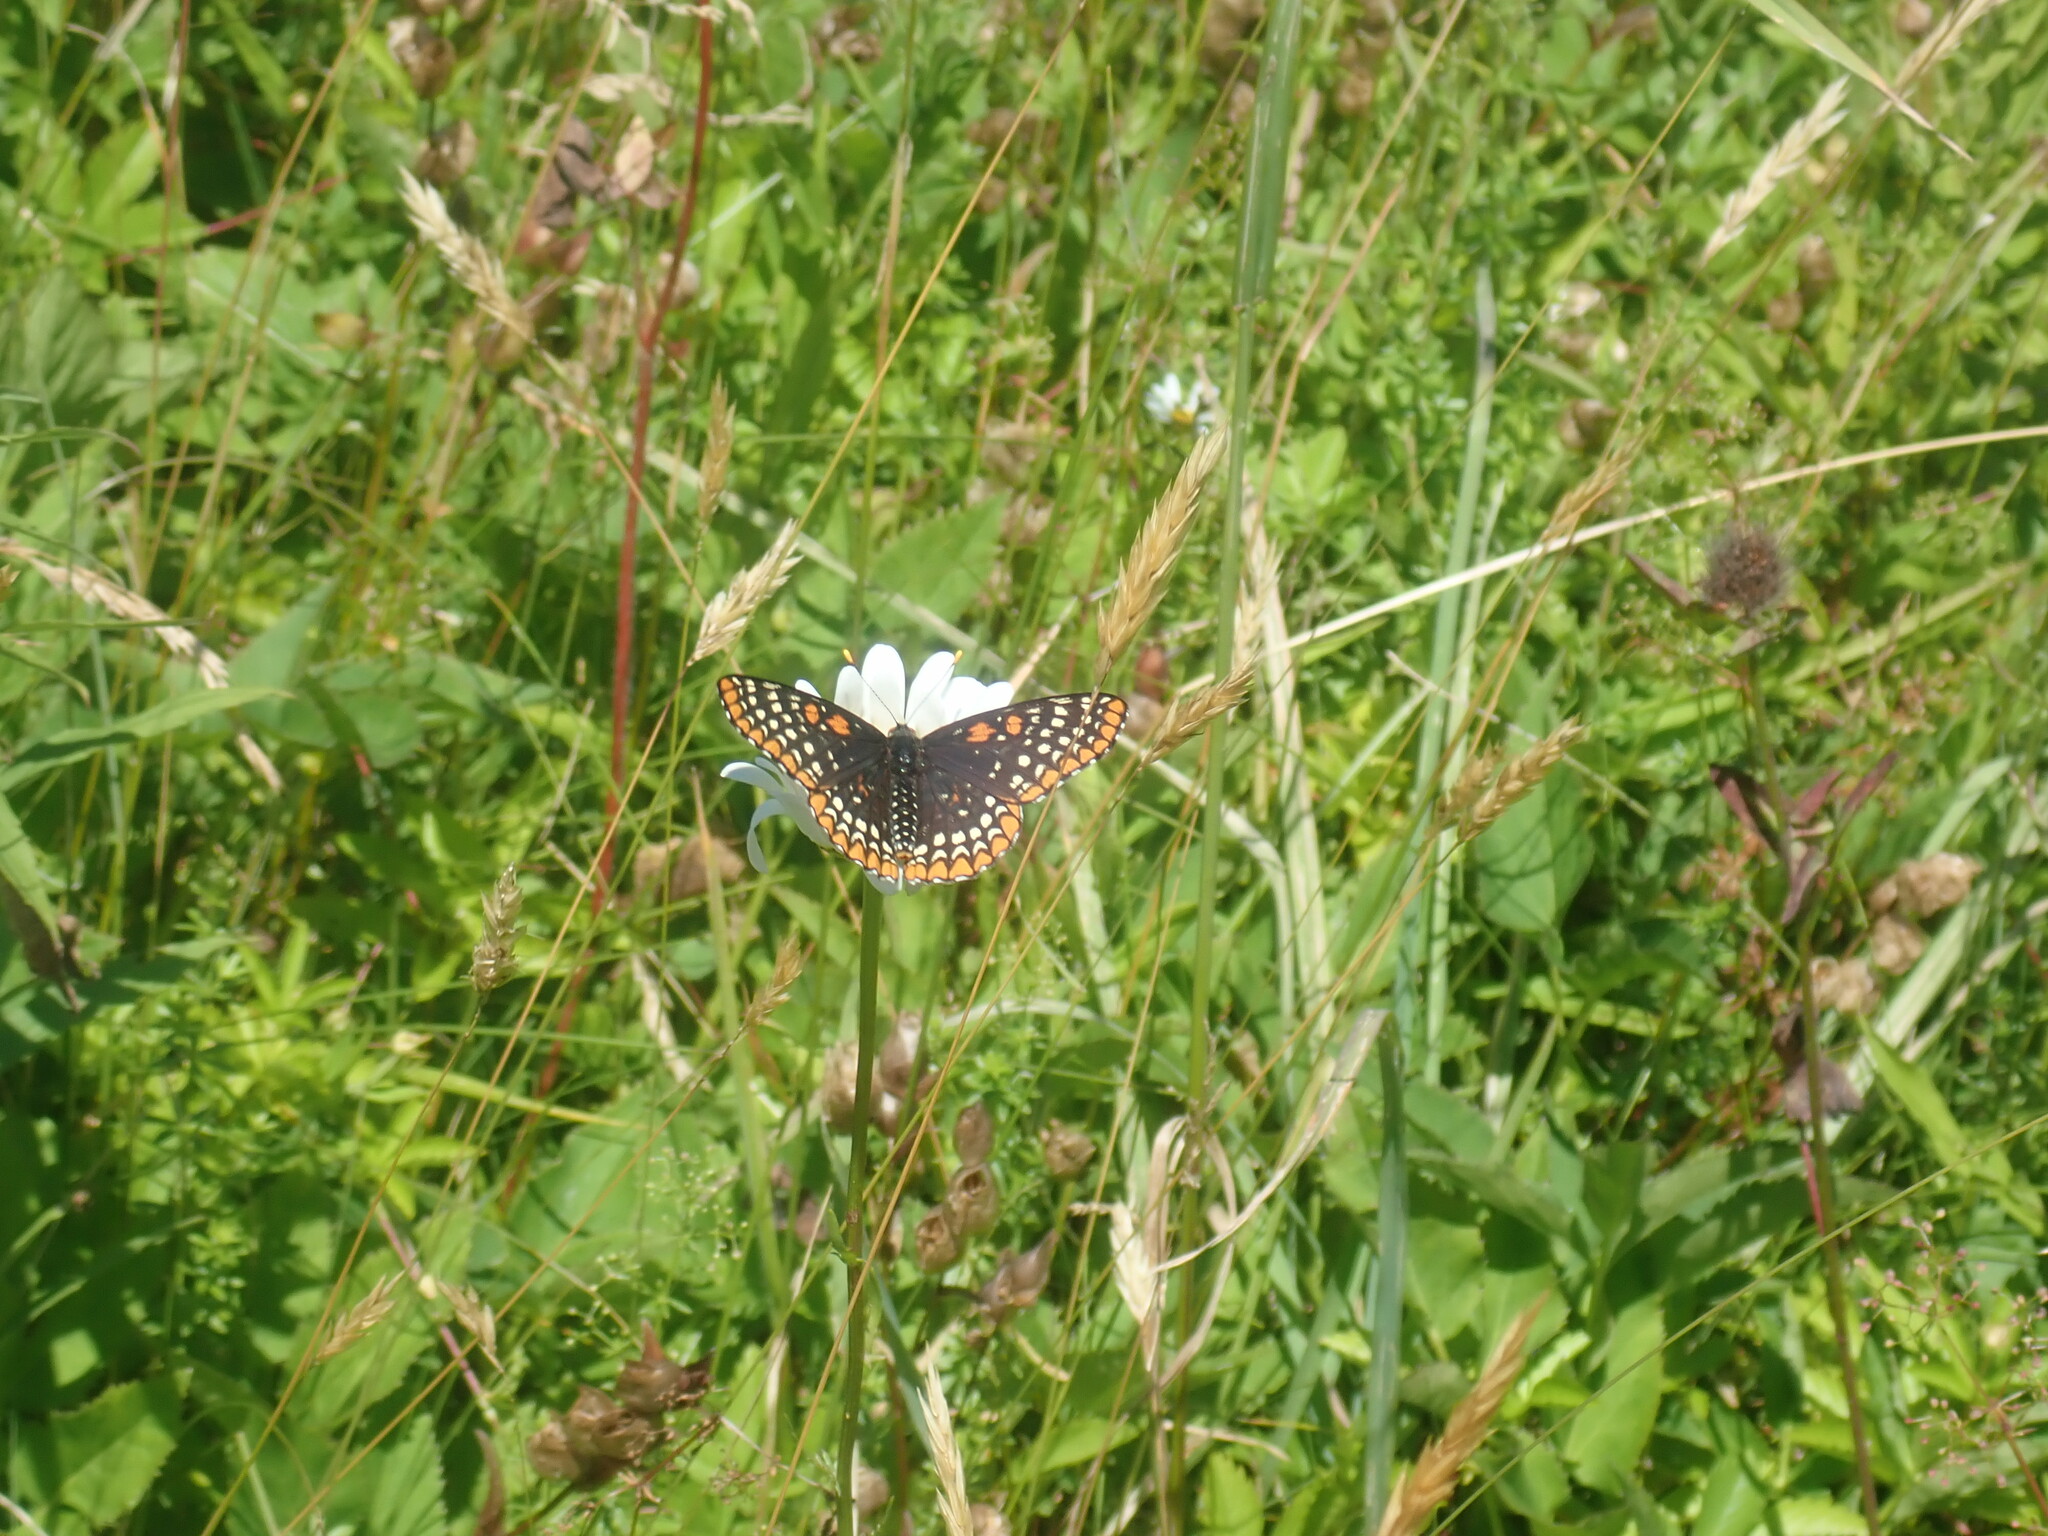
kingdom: Animalia
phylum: Arthropoda
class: Insecta
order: Lepidoptera
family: Nymphalidae
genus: Euphydryas
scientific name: Euphydryas phaeton
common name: Baltimore checkerspot
